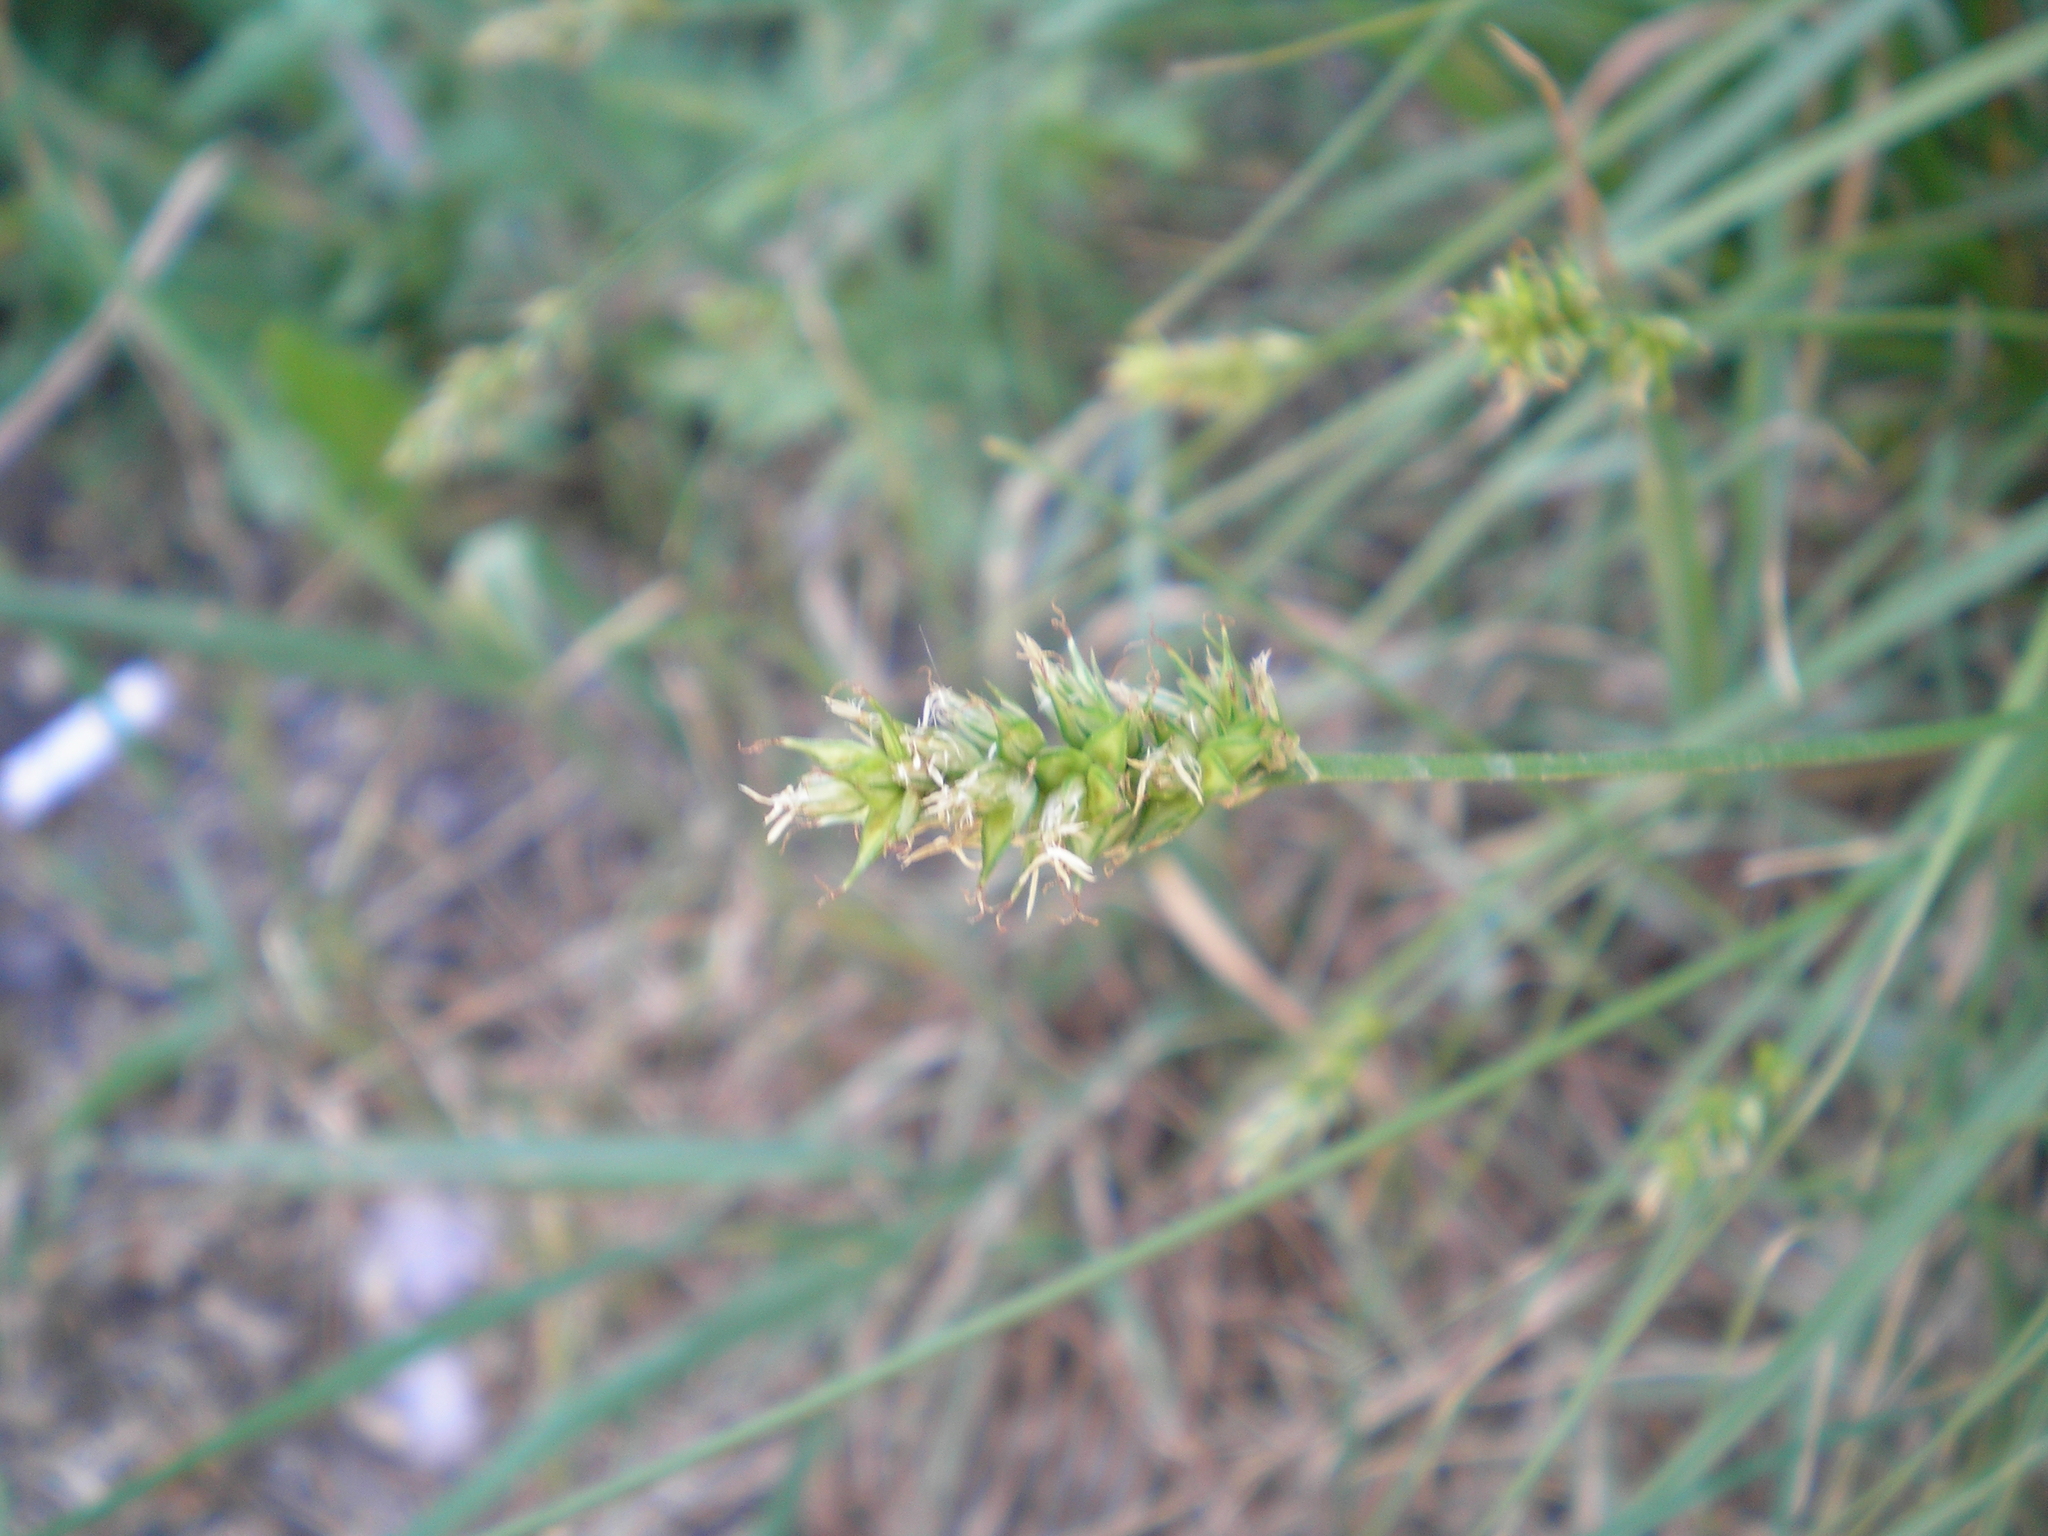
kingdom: Plantae
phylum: Tracheophyta
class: Liliopsida
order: Poales
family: Cyperaceae
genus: Carex
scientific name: Carex vulpina
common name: True fox-sedge
